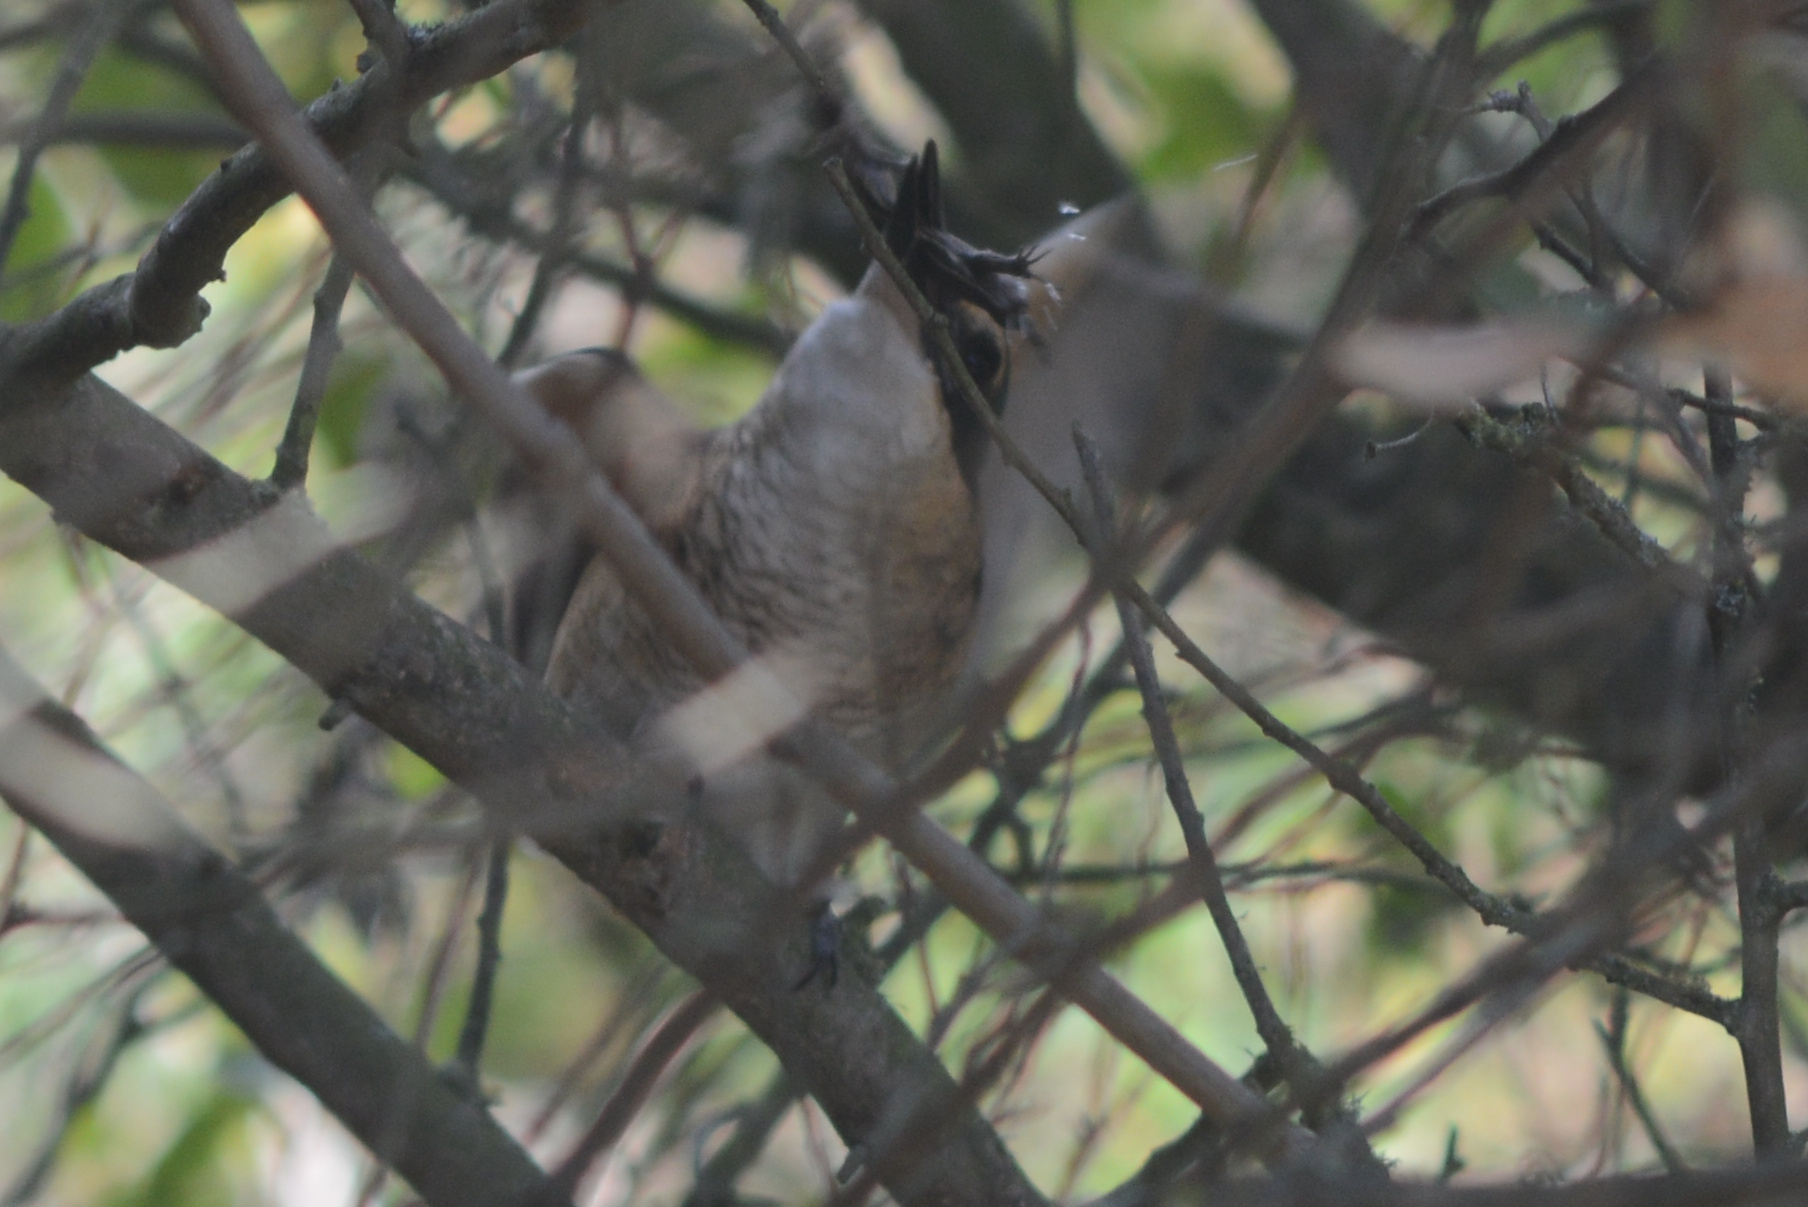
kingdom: Animalia
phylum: Chordata
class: Aves
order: Coraciiformes
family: Alcedinidae
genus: Todiramphus
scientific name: Todiramphus sanctus
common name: Sacred kingfisher
